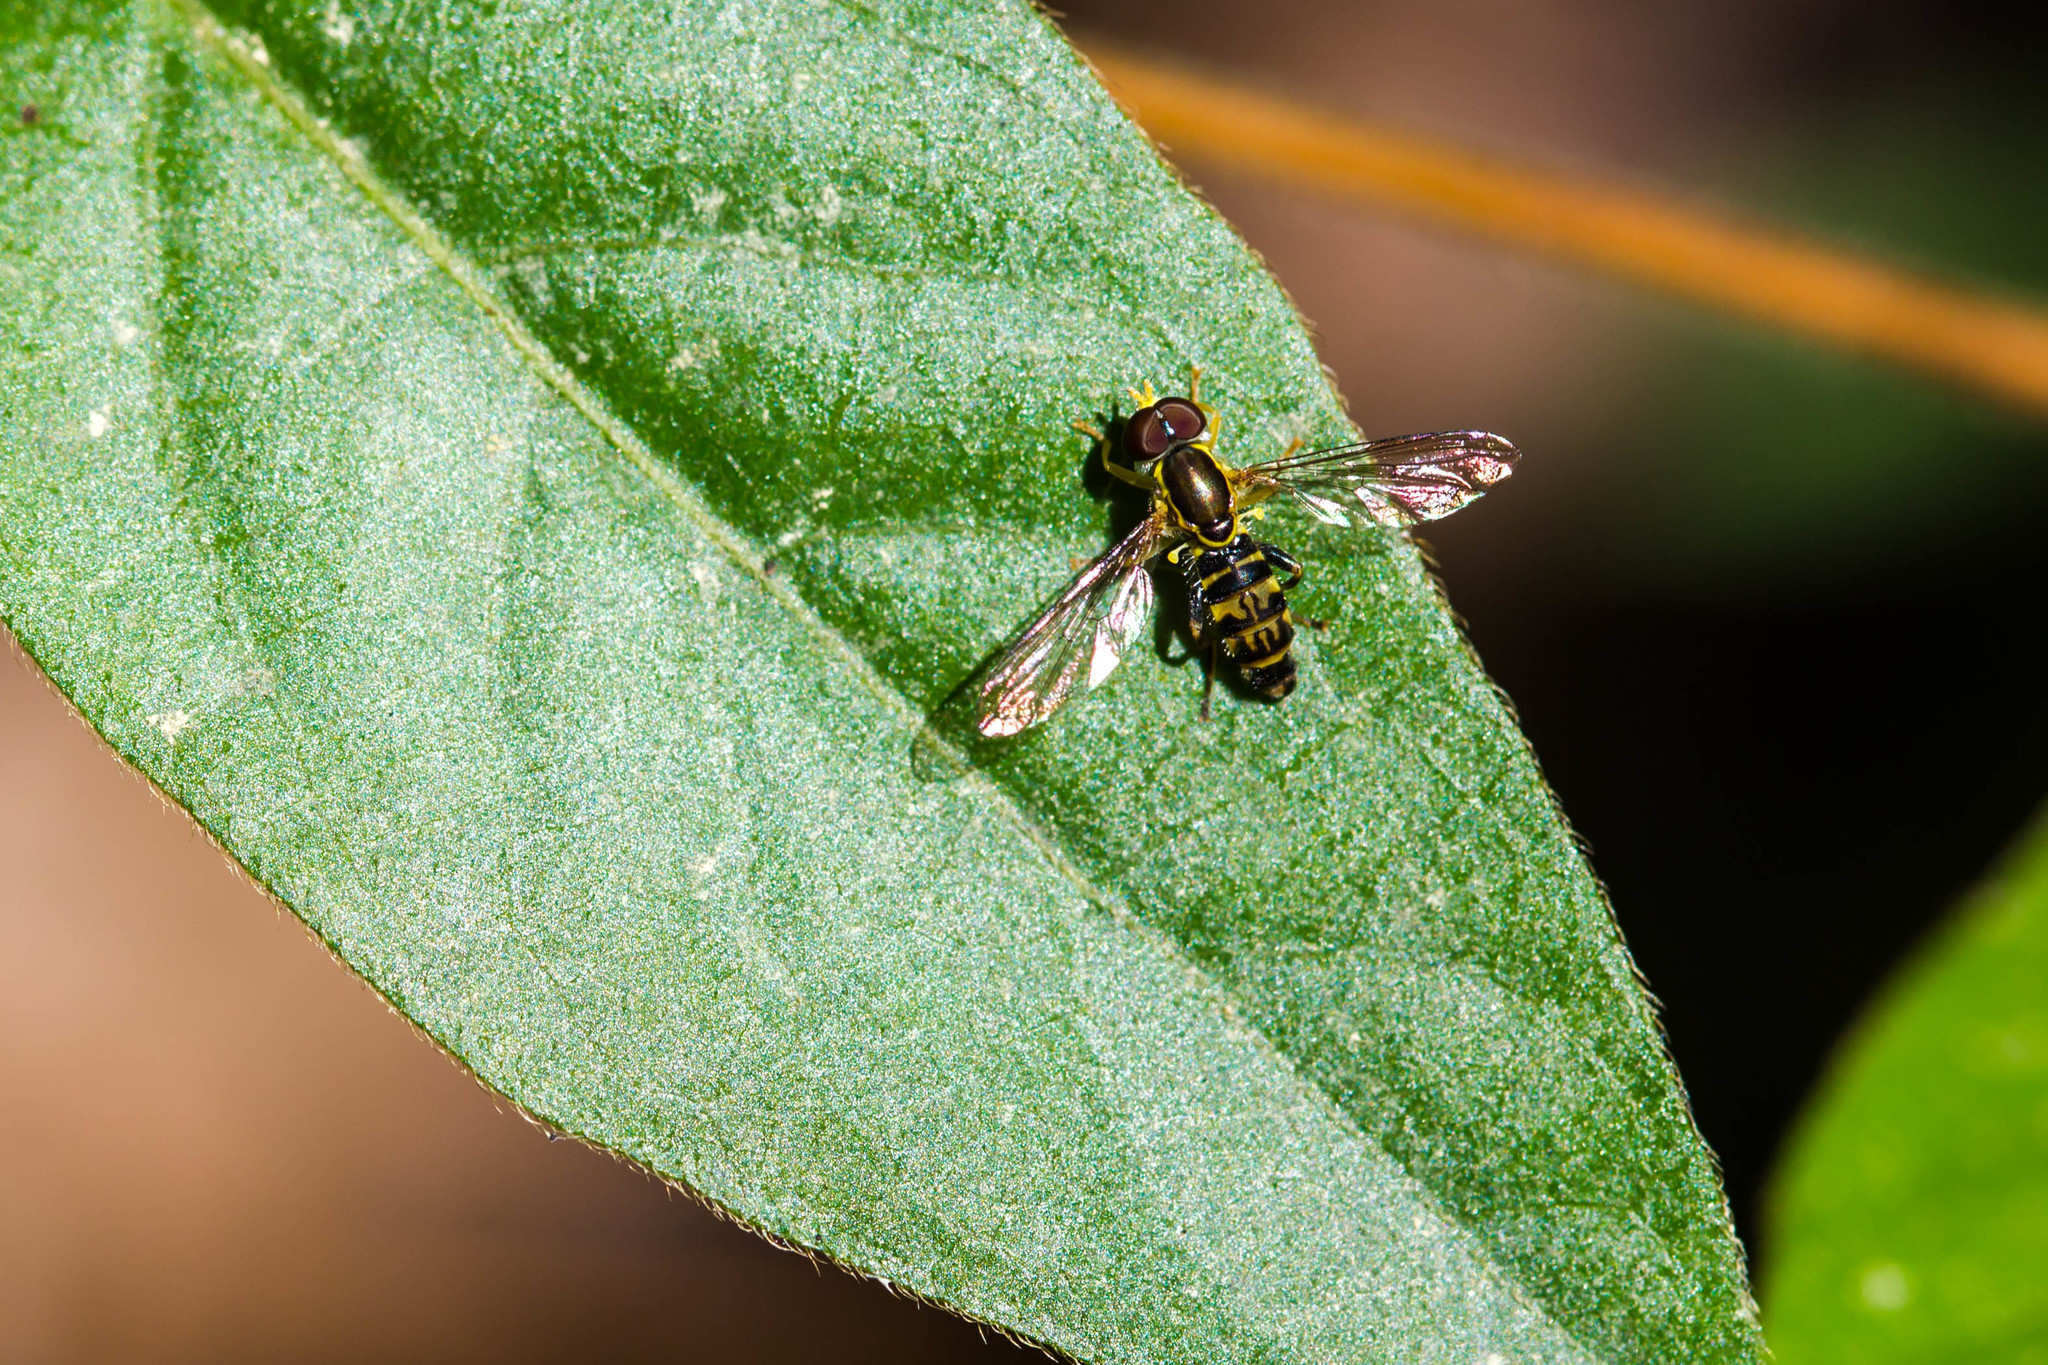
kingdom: Animalia
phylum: Arthropoda
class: Insecta
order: Diptera
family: Syrphidae
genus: Toxomerus
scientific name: Toxomerus geminatus
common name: Eastern calligrapher
